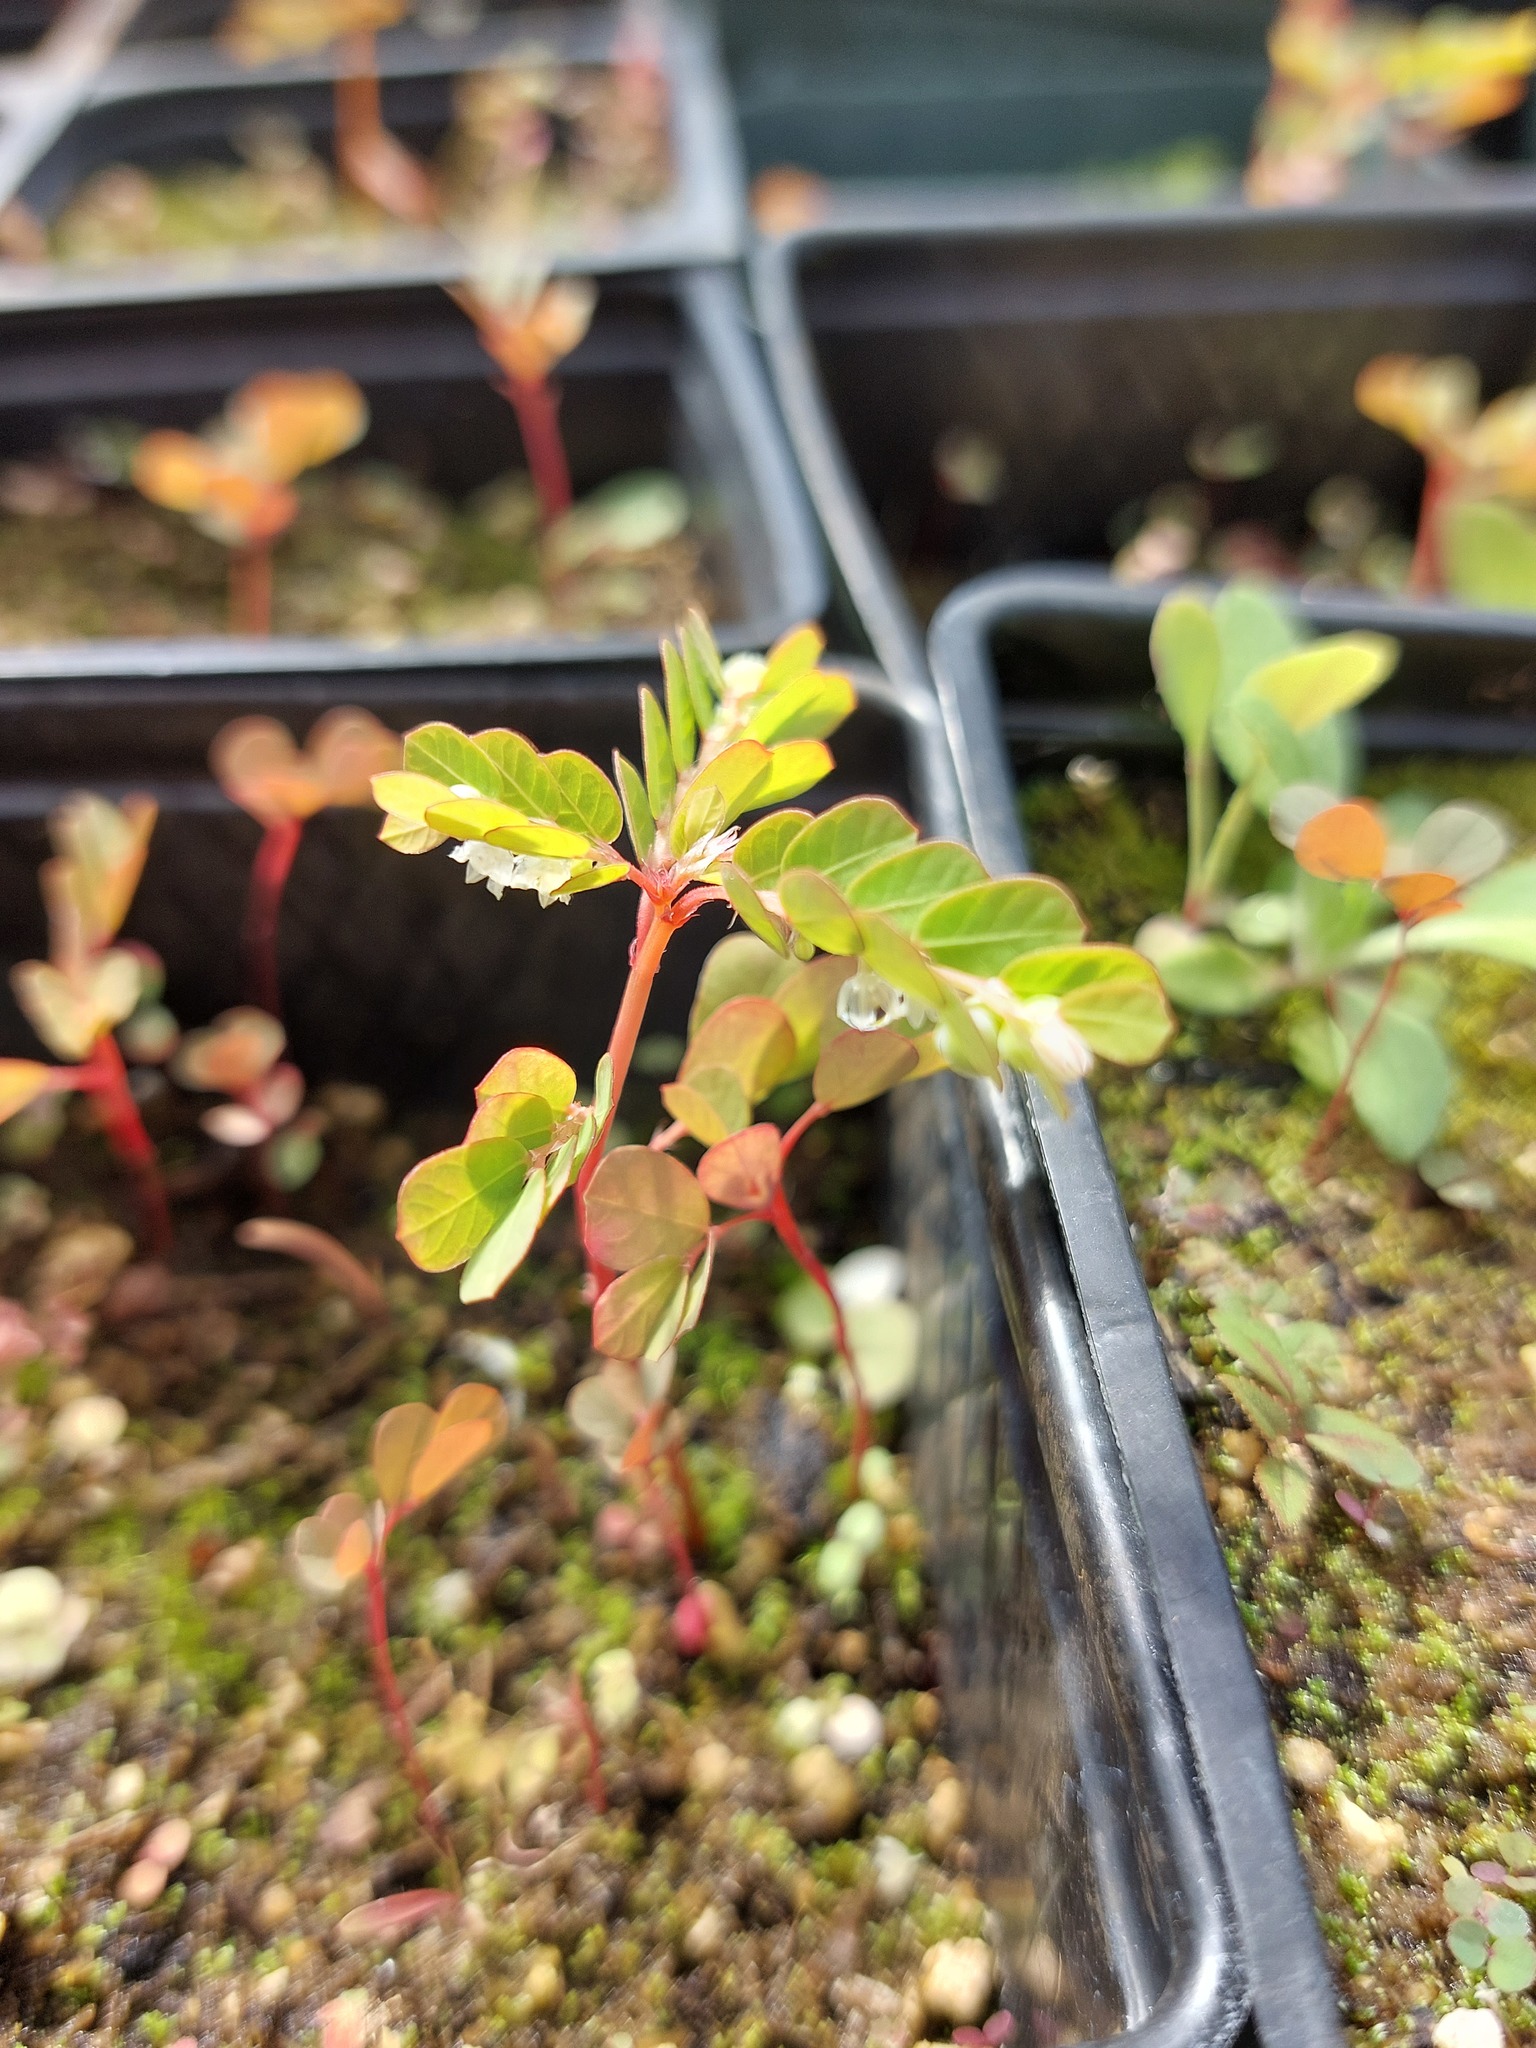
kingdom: Plantae
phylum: Tracheophyta
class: Magnoliopsida
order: Malpighiales
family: Phyllanthaceae
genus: Phyllanthus
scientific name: Phyllanthus leucanthus
